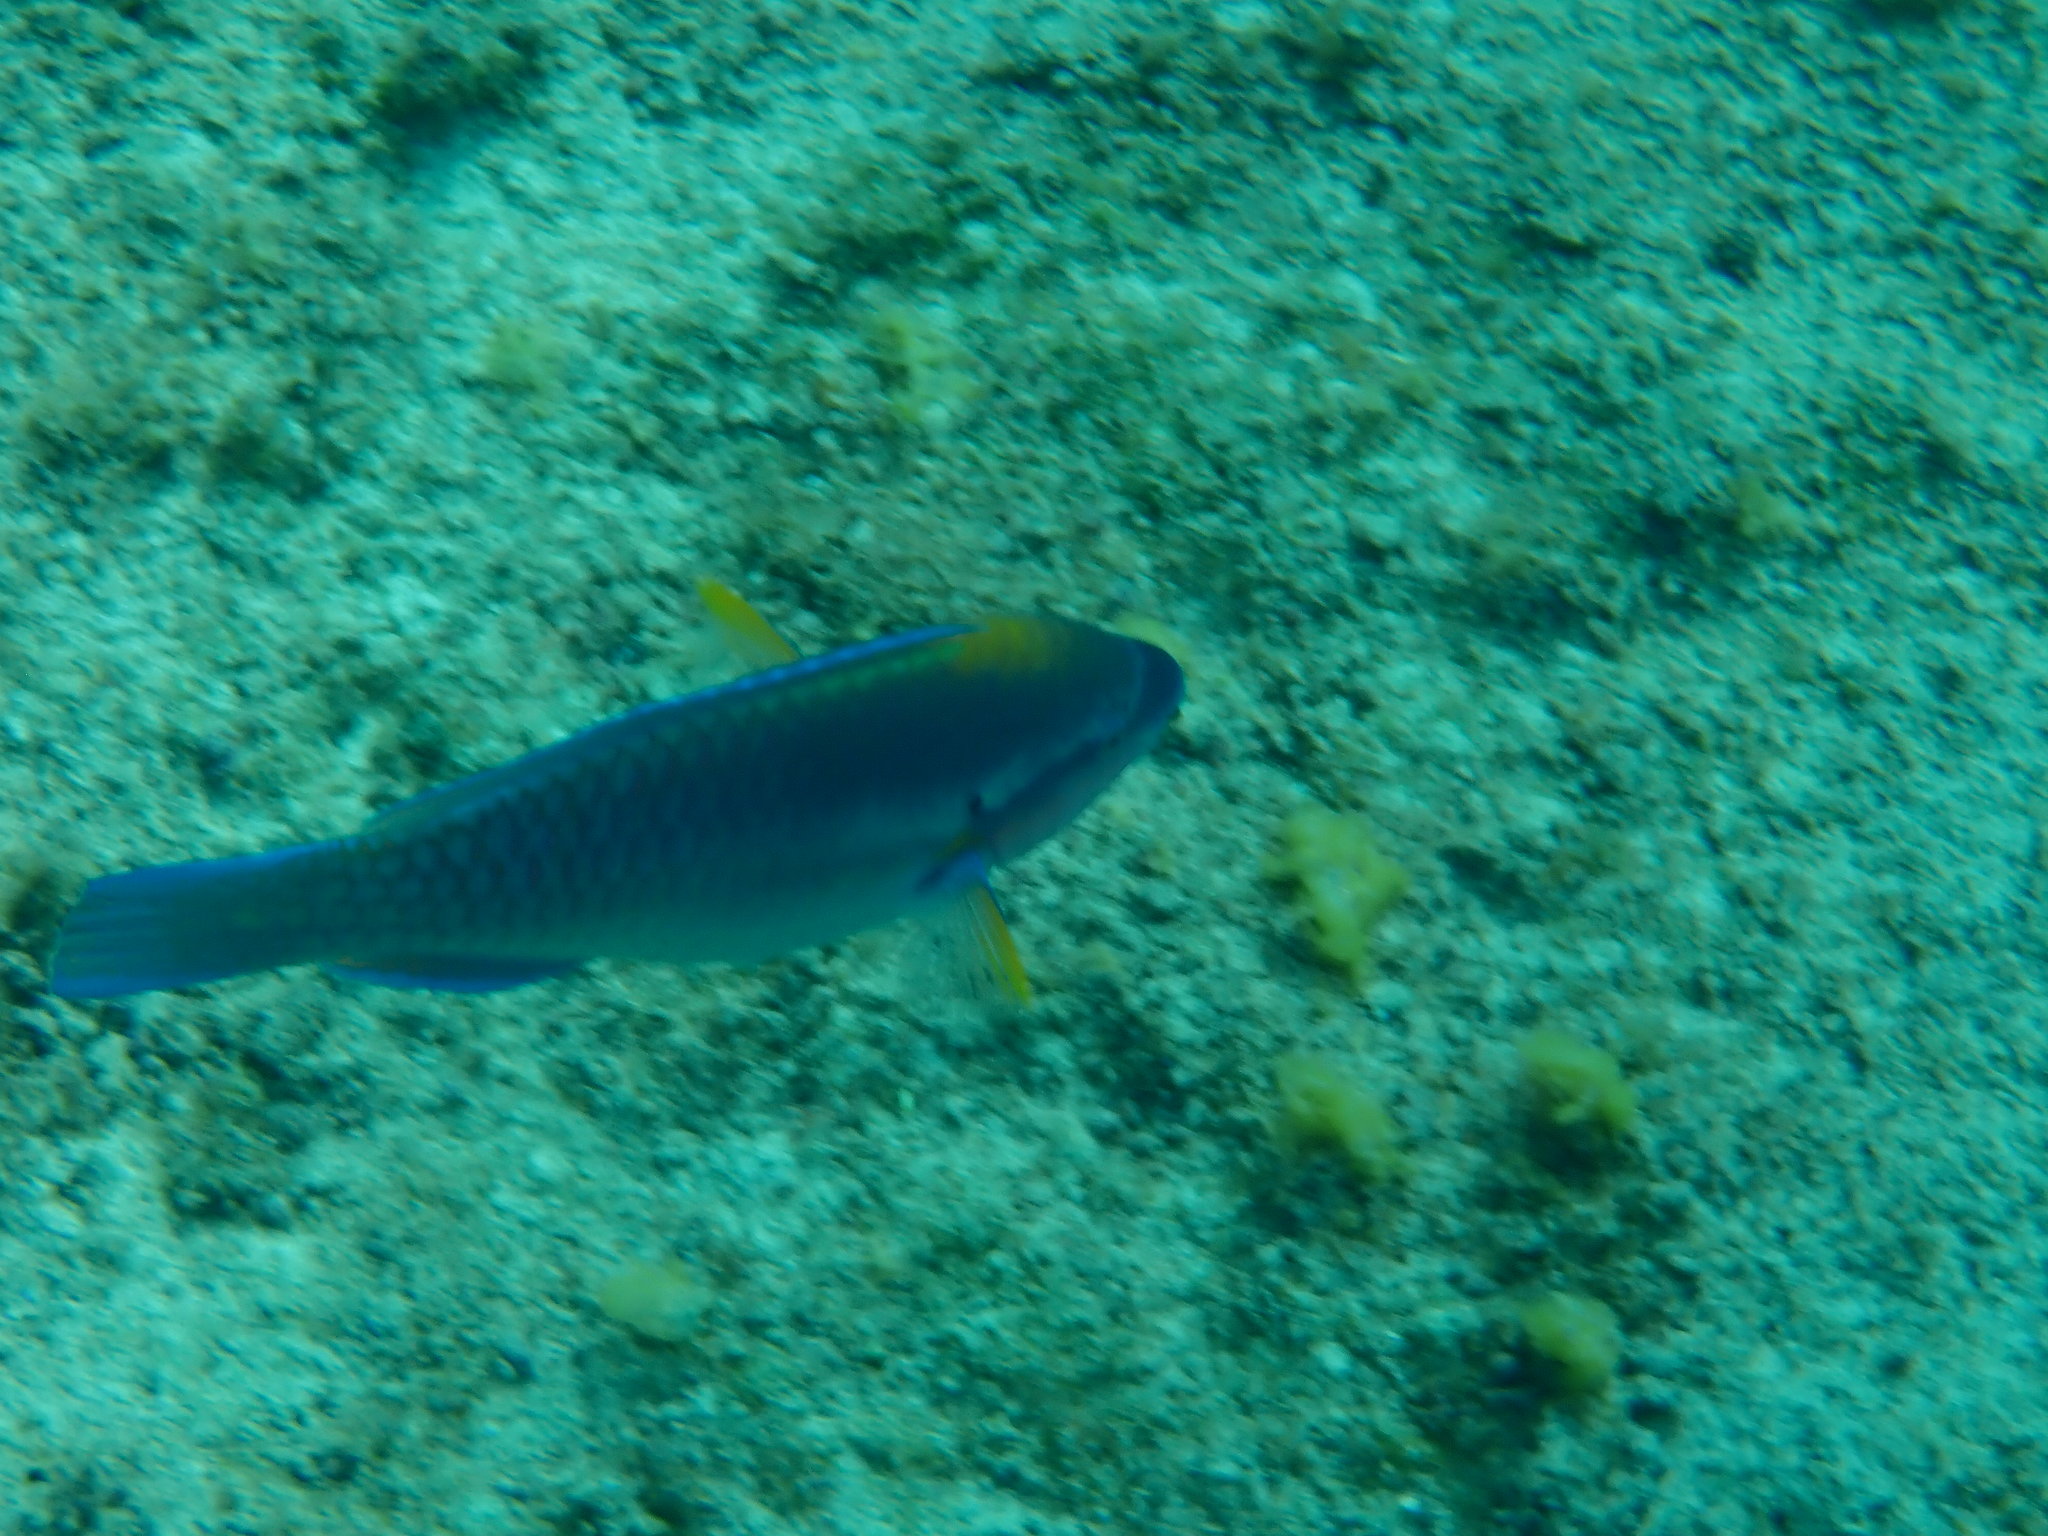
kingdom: Animalia
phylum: Chordata
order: Perciformes
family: Scaridae
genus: Scarus
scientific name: Scarus iseri
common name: Striped parrotfish
